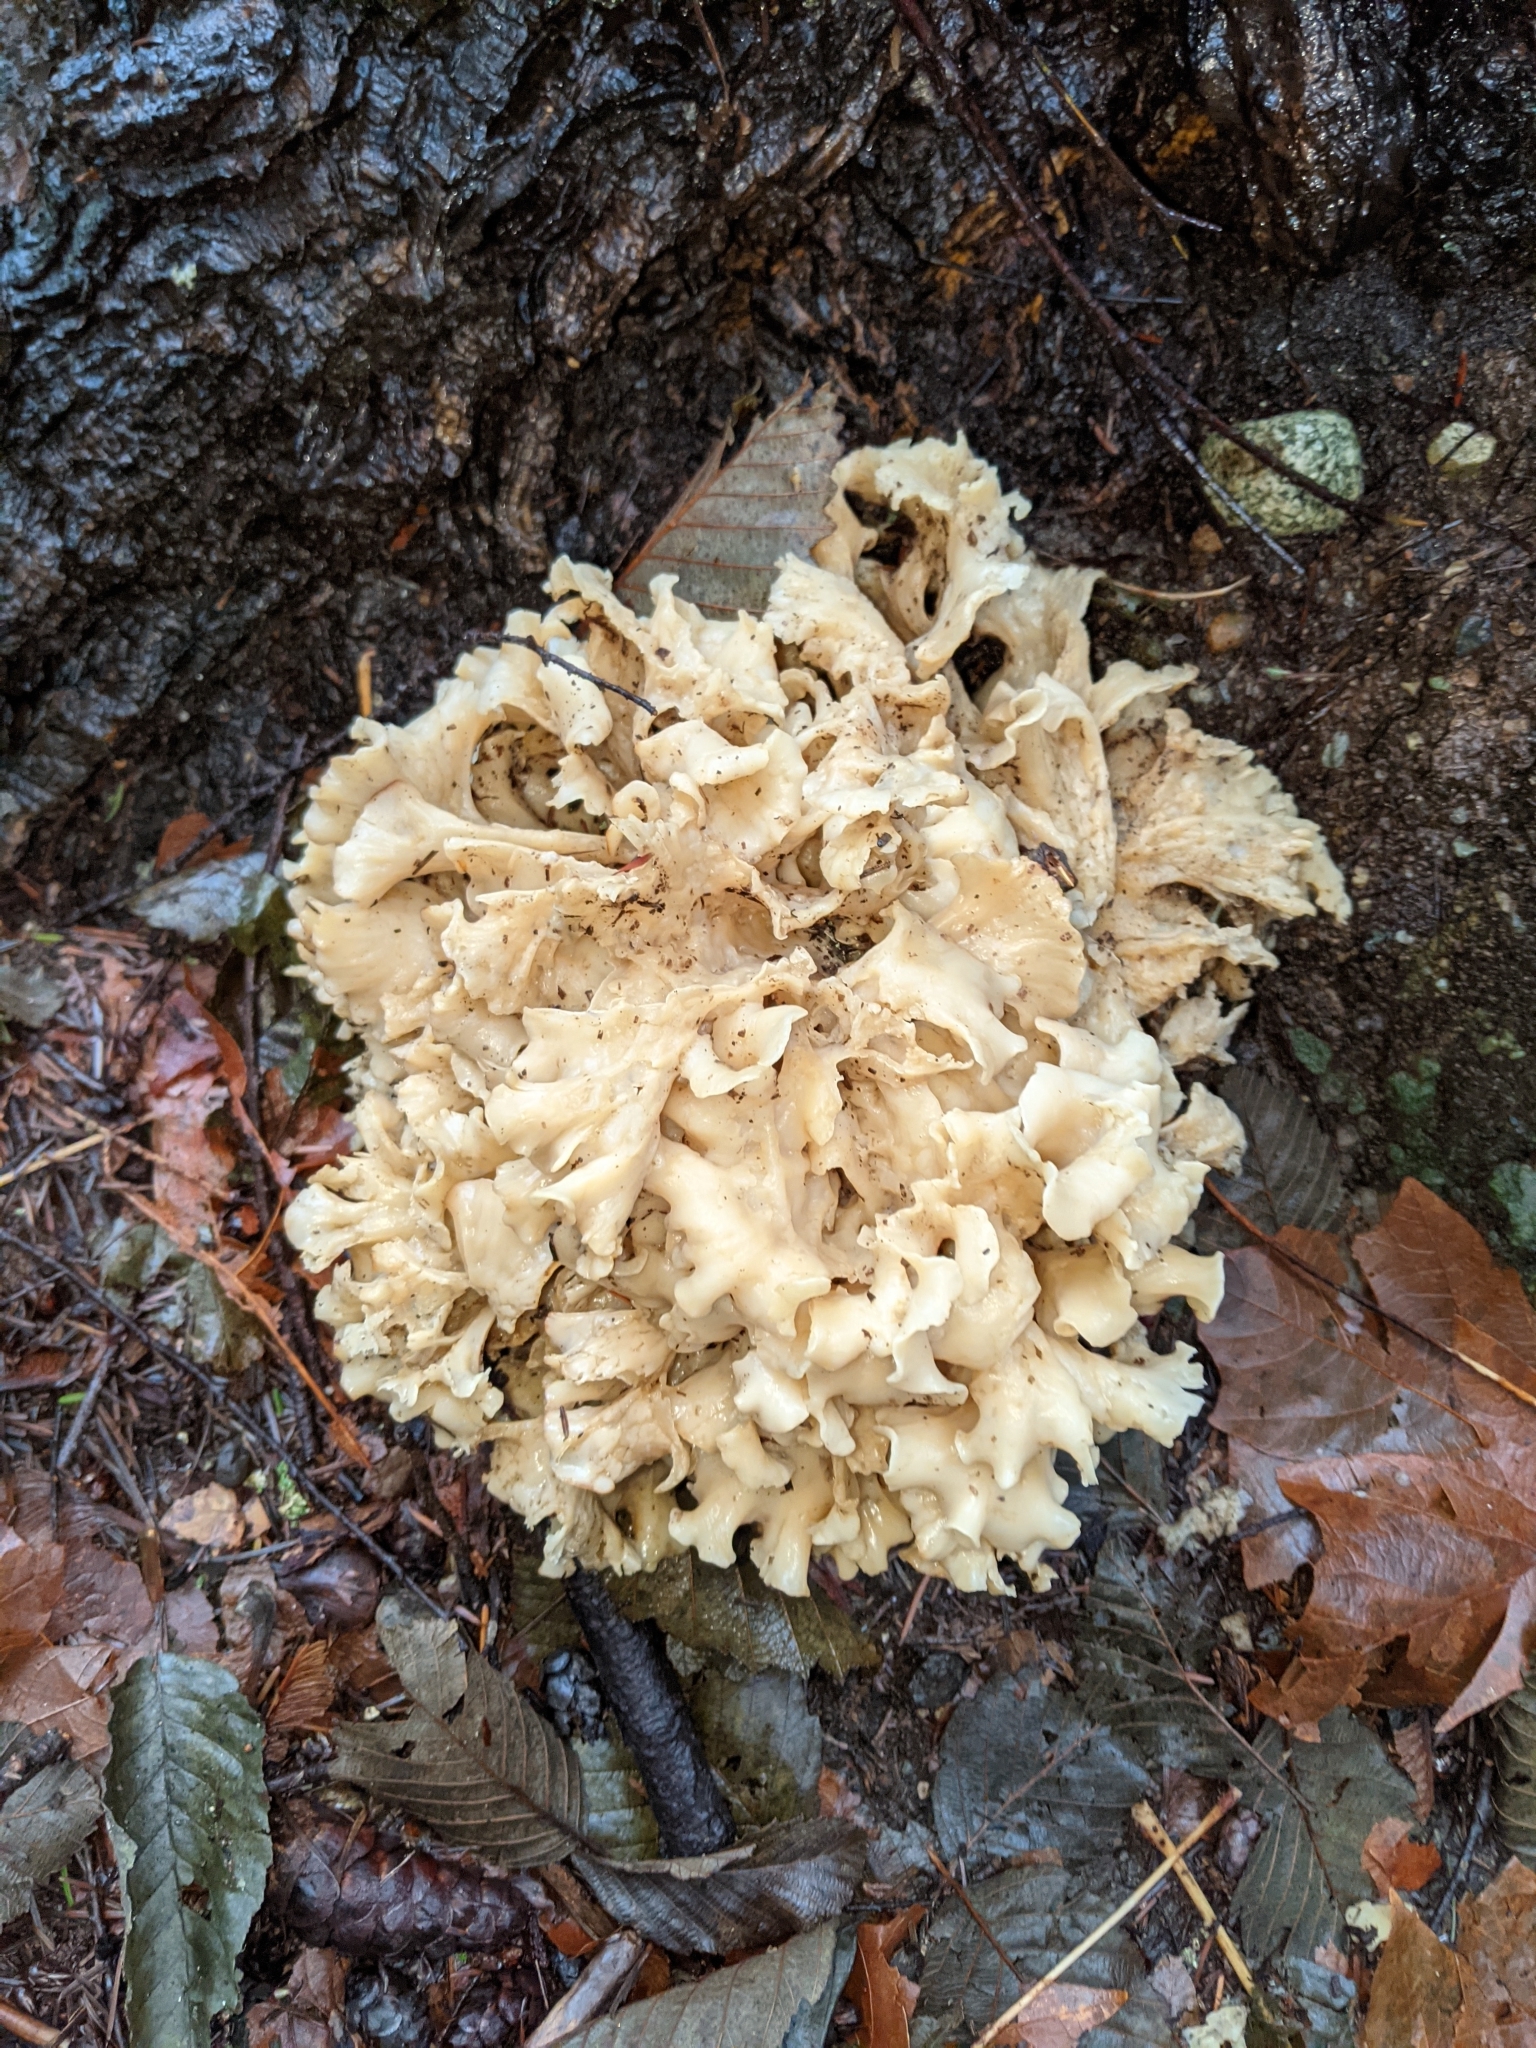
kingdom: Fungi
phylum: Basidiomycota
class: Agaricomycetes
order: Polyporales
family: Sparassidaceae
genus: Sparassis
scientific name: Sparassis radicata
